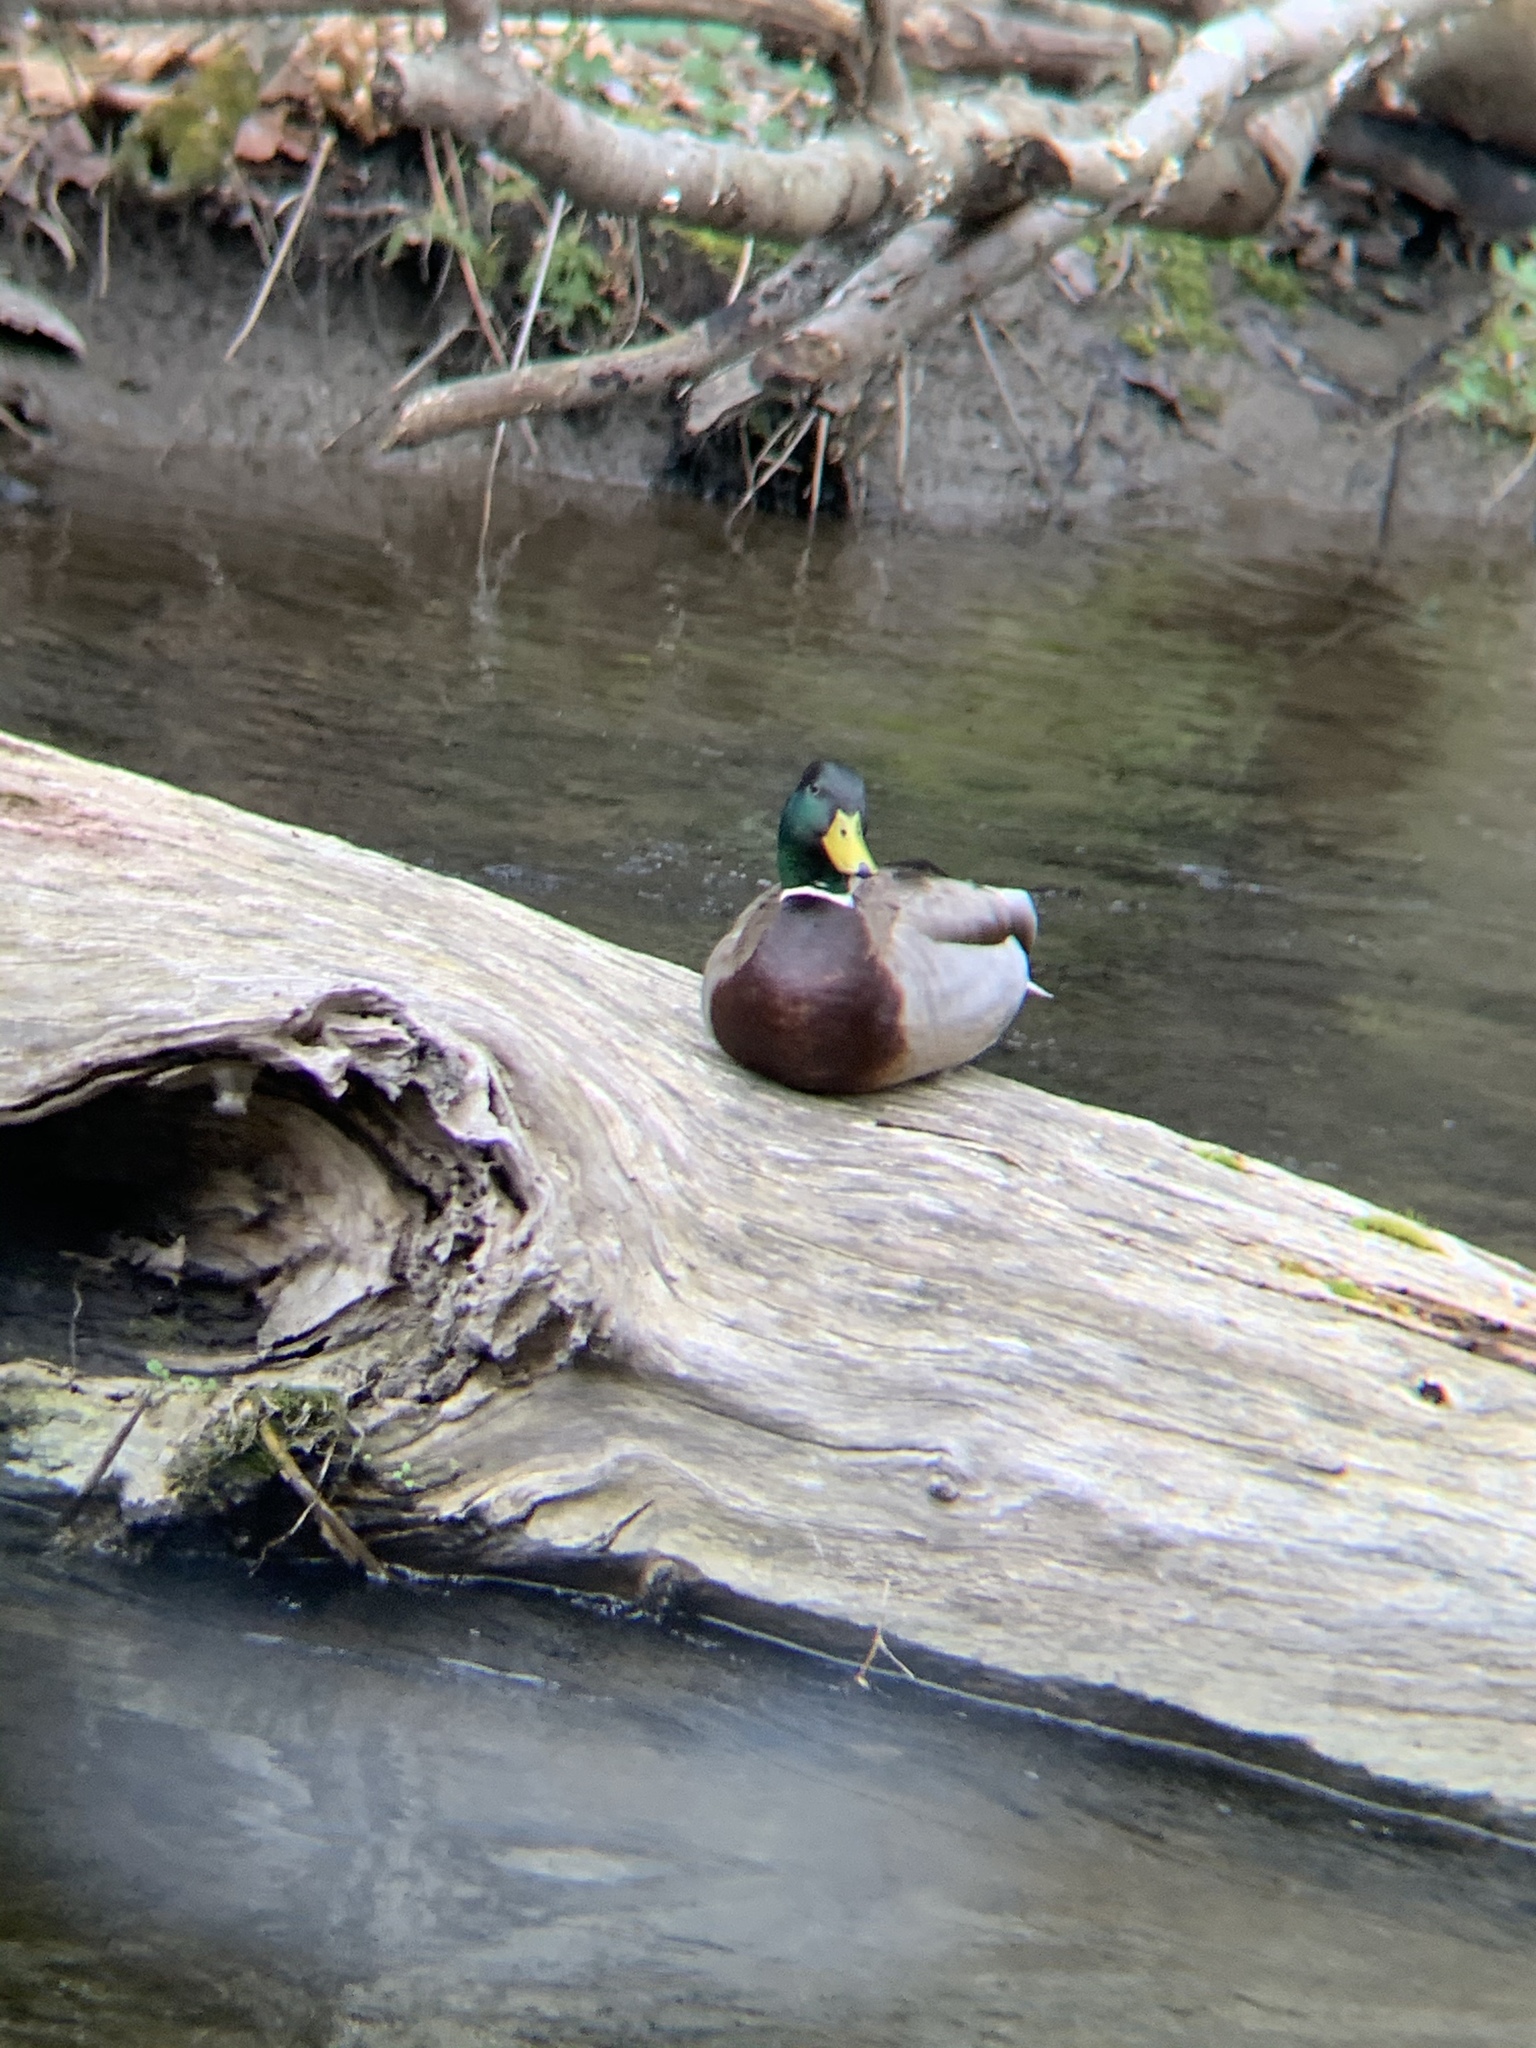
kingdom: Animalia
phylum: Chordata
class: Aves
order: Anseriformes
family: Anatidae
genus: Anas
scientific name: Anas platyrhynchos
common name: Mallard
